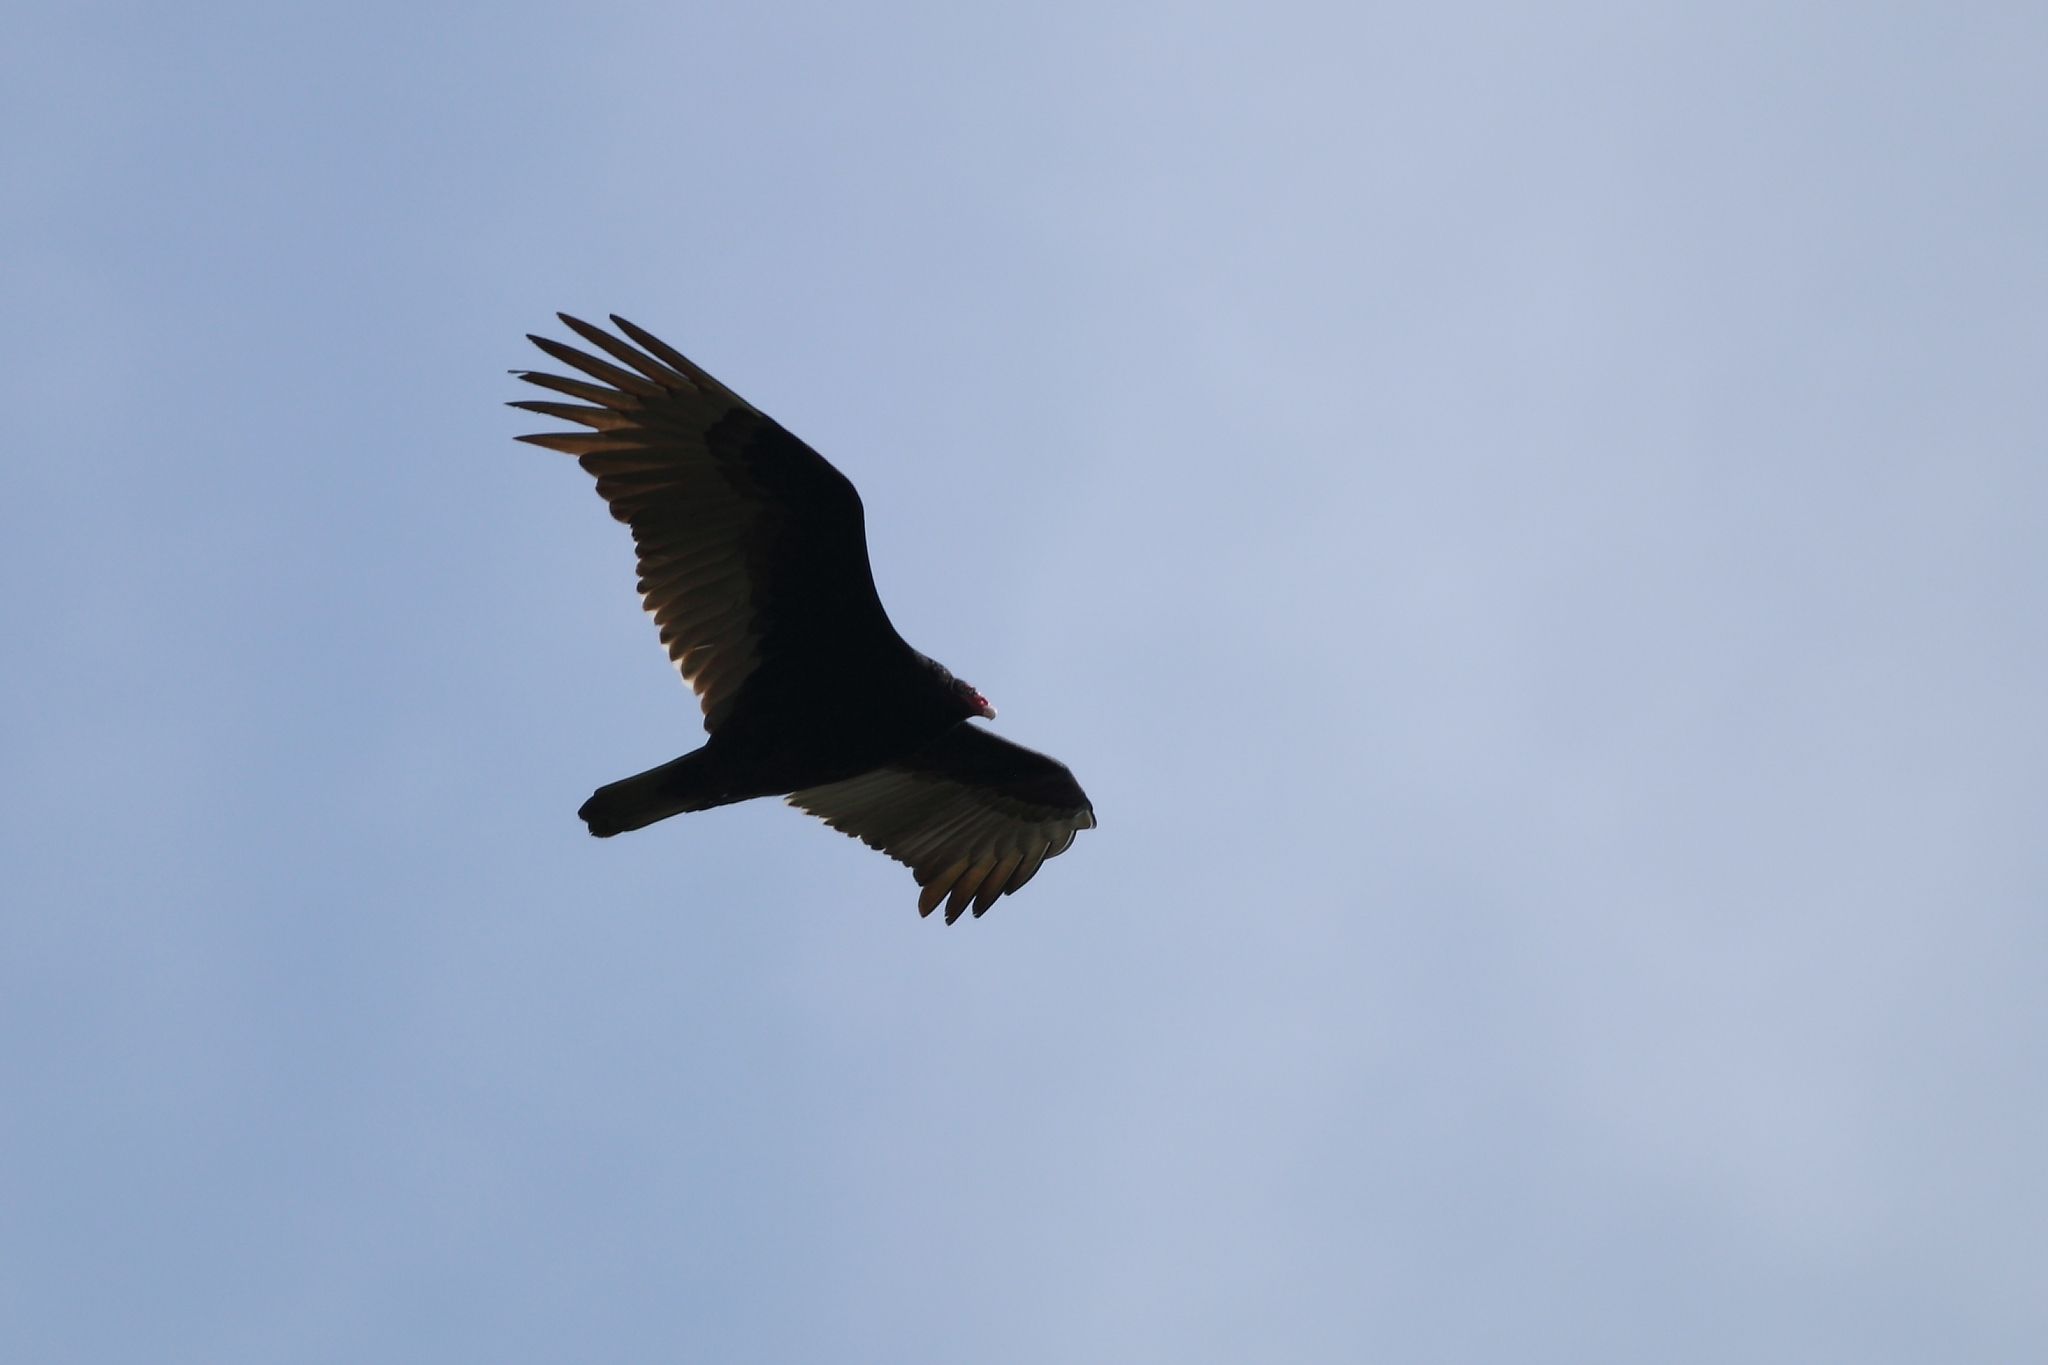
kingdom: Animalia
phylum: Chordata
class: Aves
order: Accipitriformes
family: Cathartidae
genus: Cathartes
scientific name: Cathartes aura
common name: Turkey vulture
